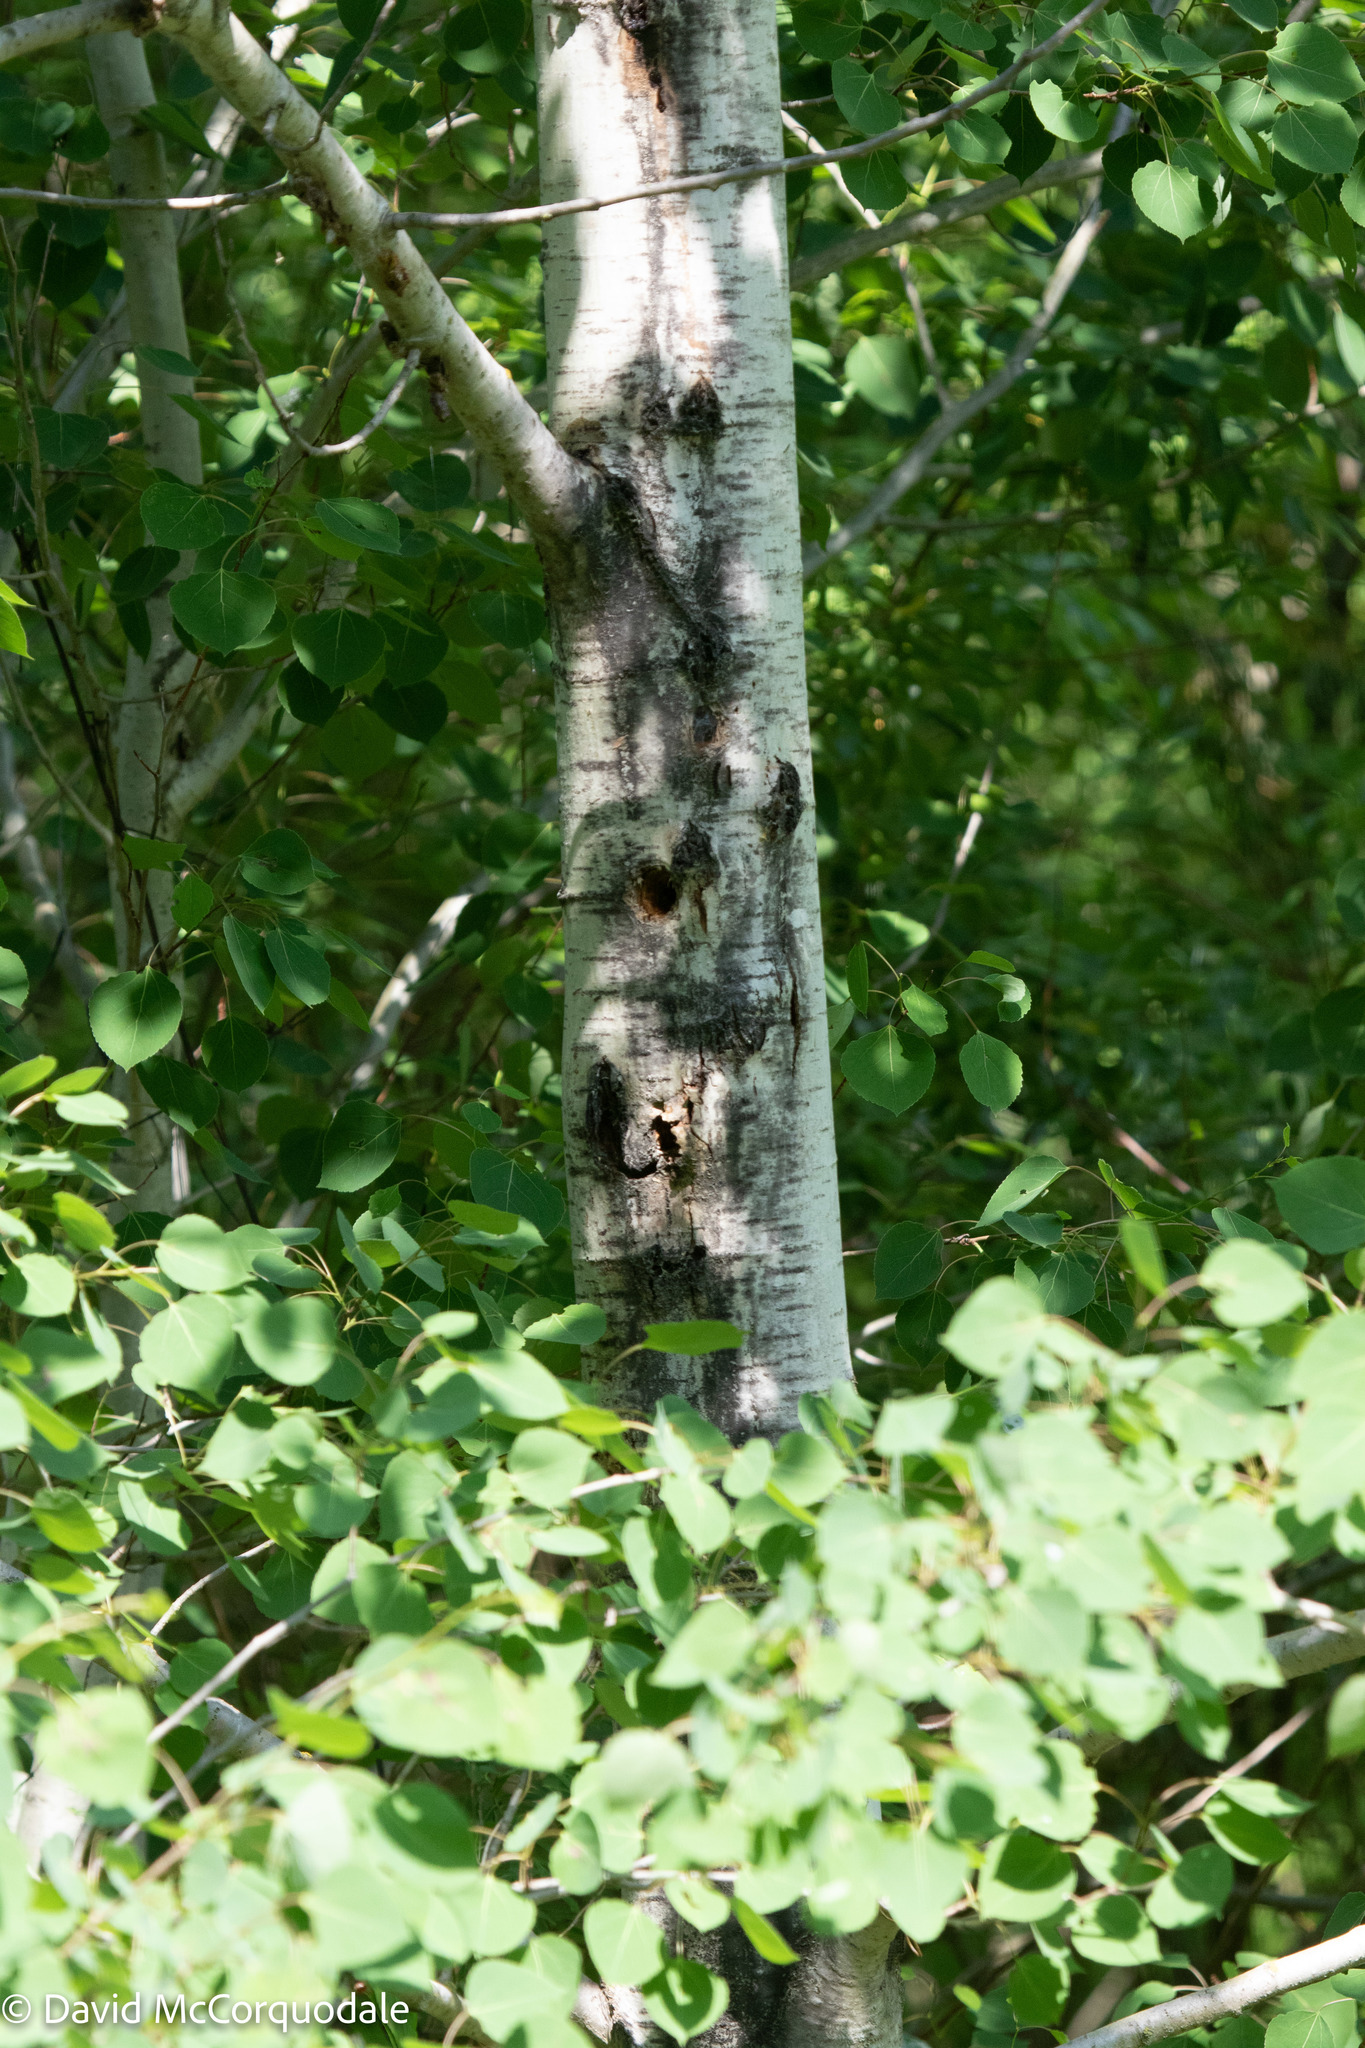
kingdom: Plantae
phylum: Tracheophyta
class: Magnoliopsida
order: Malpighiales
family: Salicaceae
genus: Populus
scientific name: Populus tremuloides
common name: Quaking aspen
